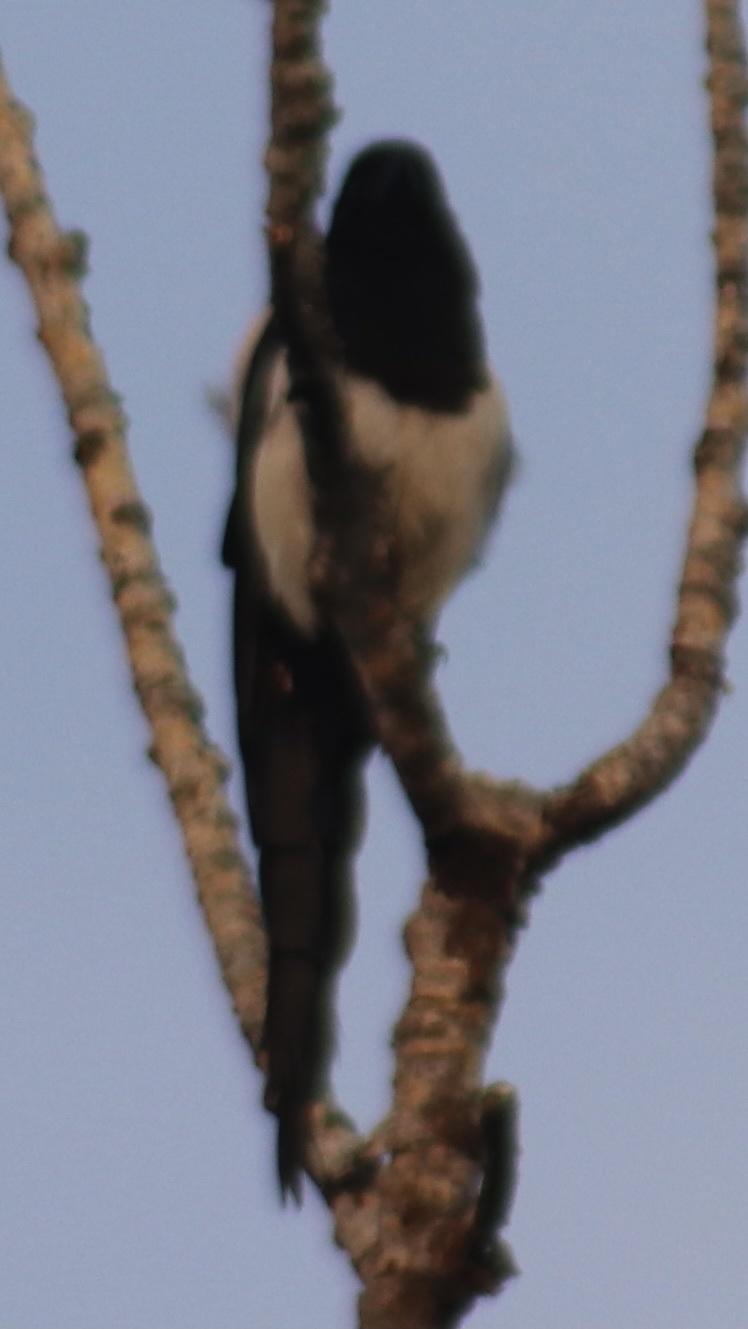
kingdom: Animalia
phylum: Chordata
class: Aves
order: Passeriformes
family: Corvidae
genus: Pica
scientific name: Pica hudsonia
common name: Black-billed magpie
